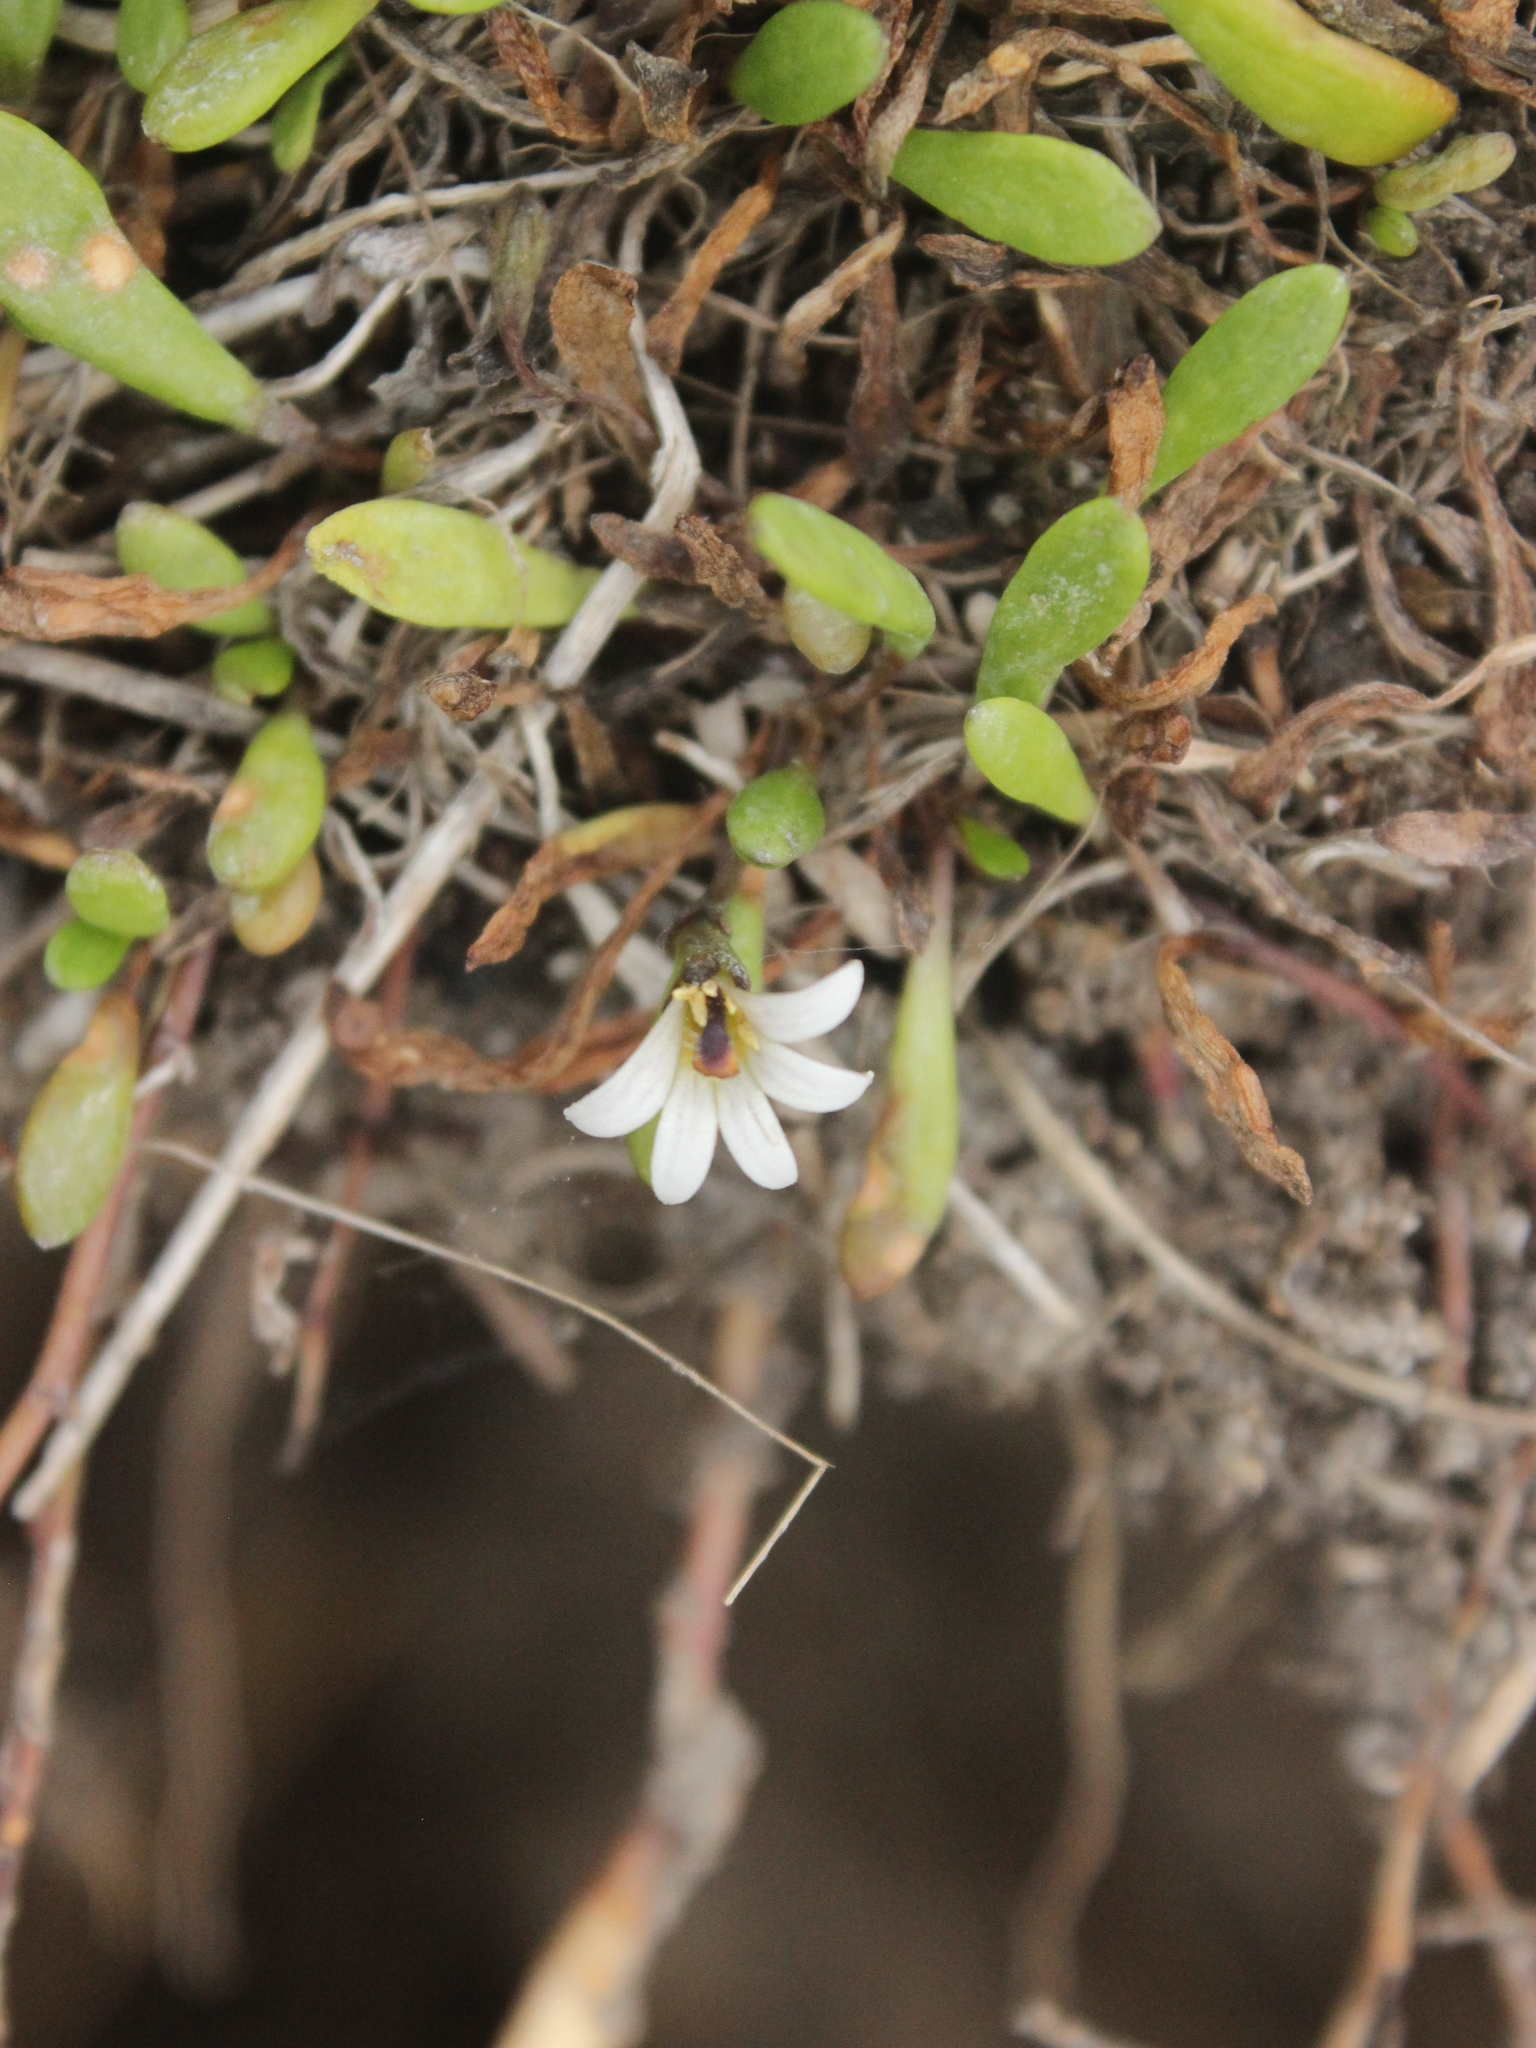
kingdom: Plantae
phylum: Tracheophyta
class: Magnoliopsida
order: Asterales
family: Goodeniaceae
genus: Goodenia
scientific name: Goodenia radicans
